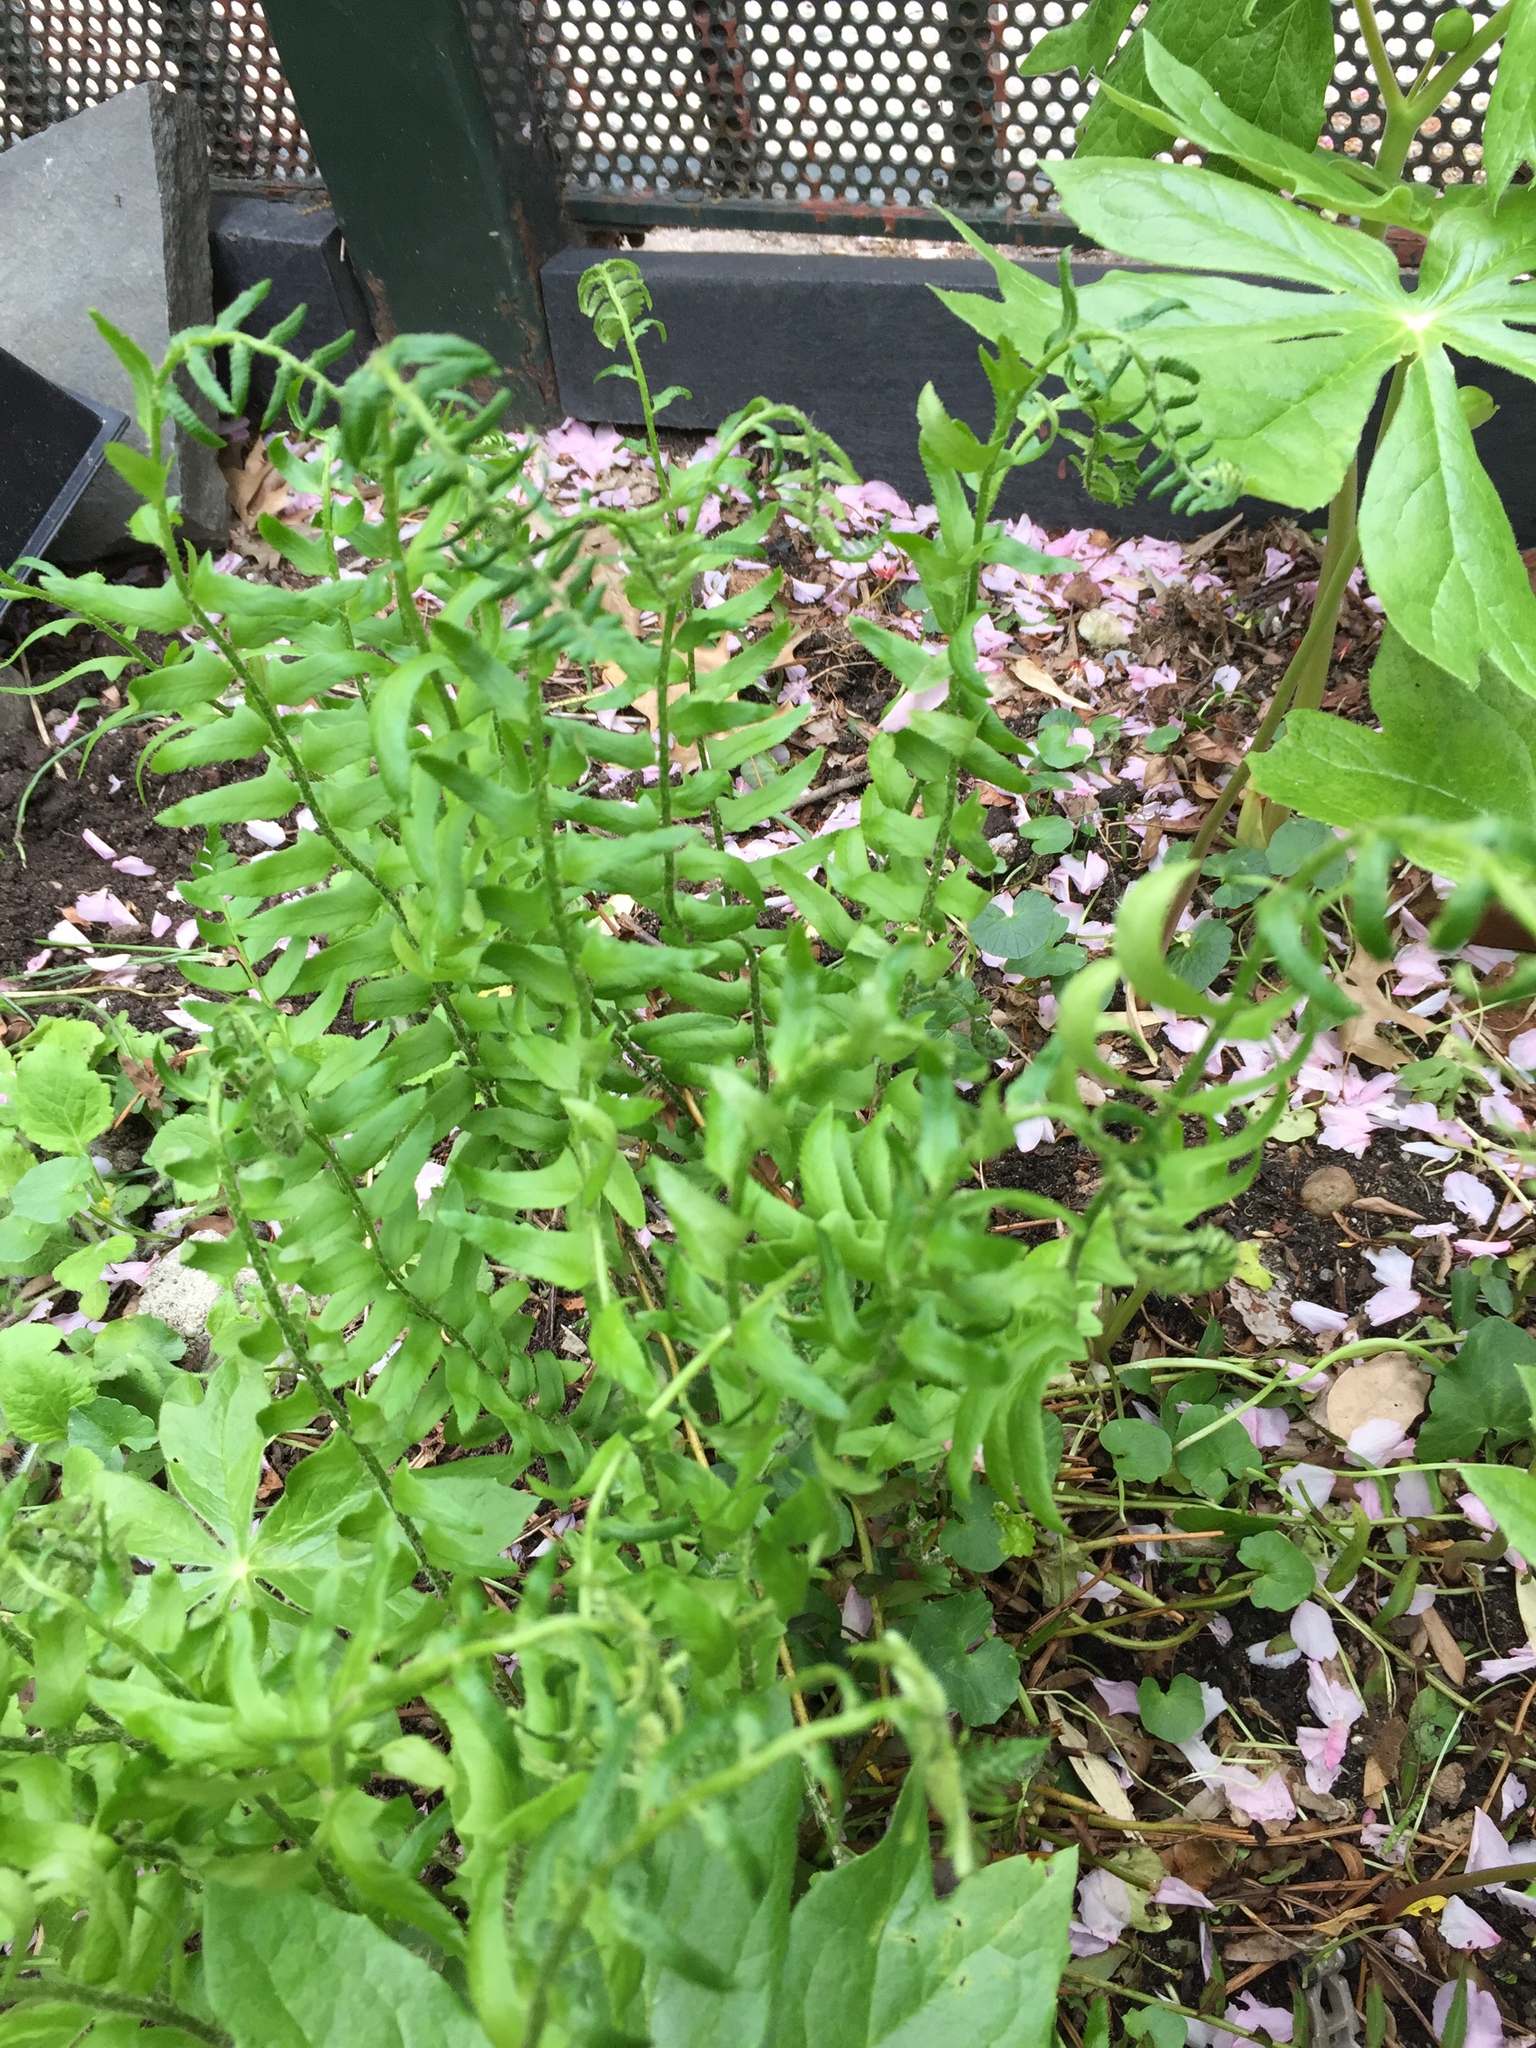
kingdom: Plantae
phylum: Tracheophyta
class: Polypodiopsida
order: Polypodiales
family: Dryopteridaceae
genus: Polystichum
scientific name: Polystichum acrostichoides
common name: Christmas fern
